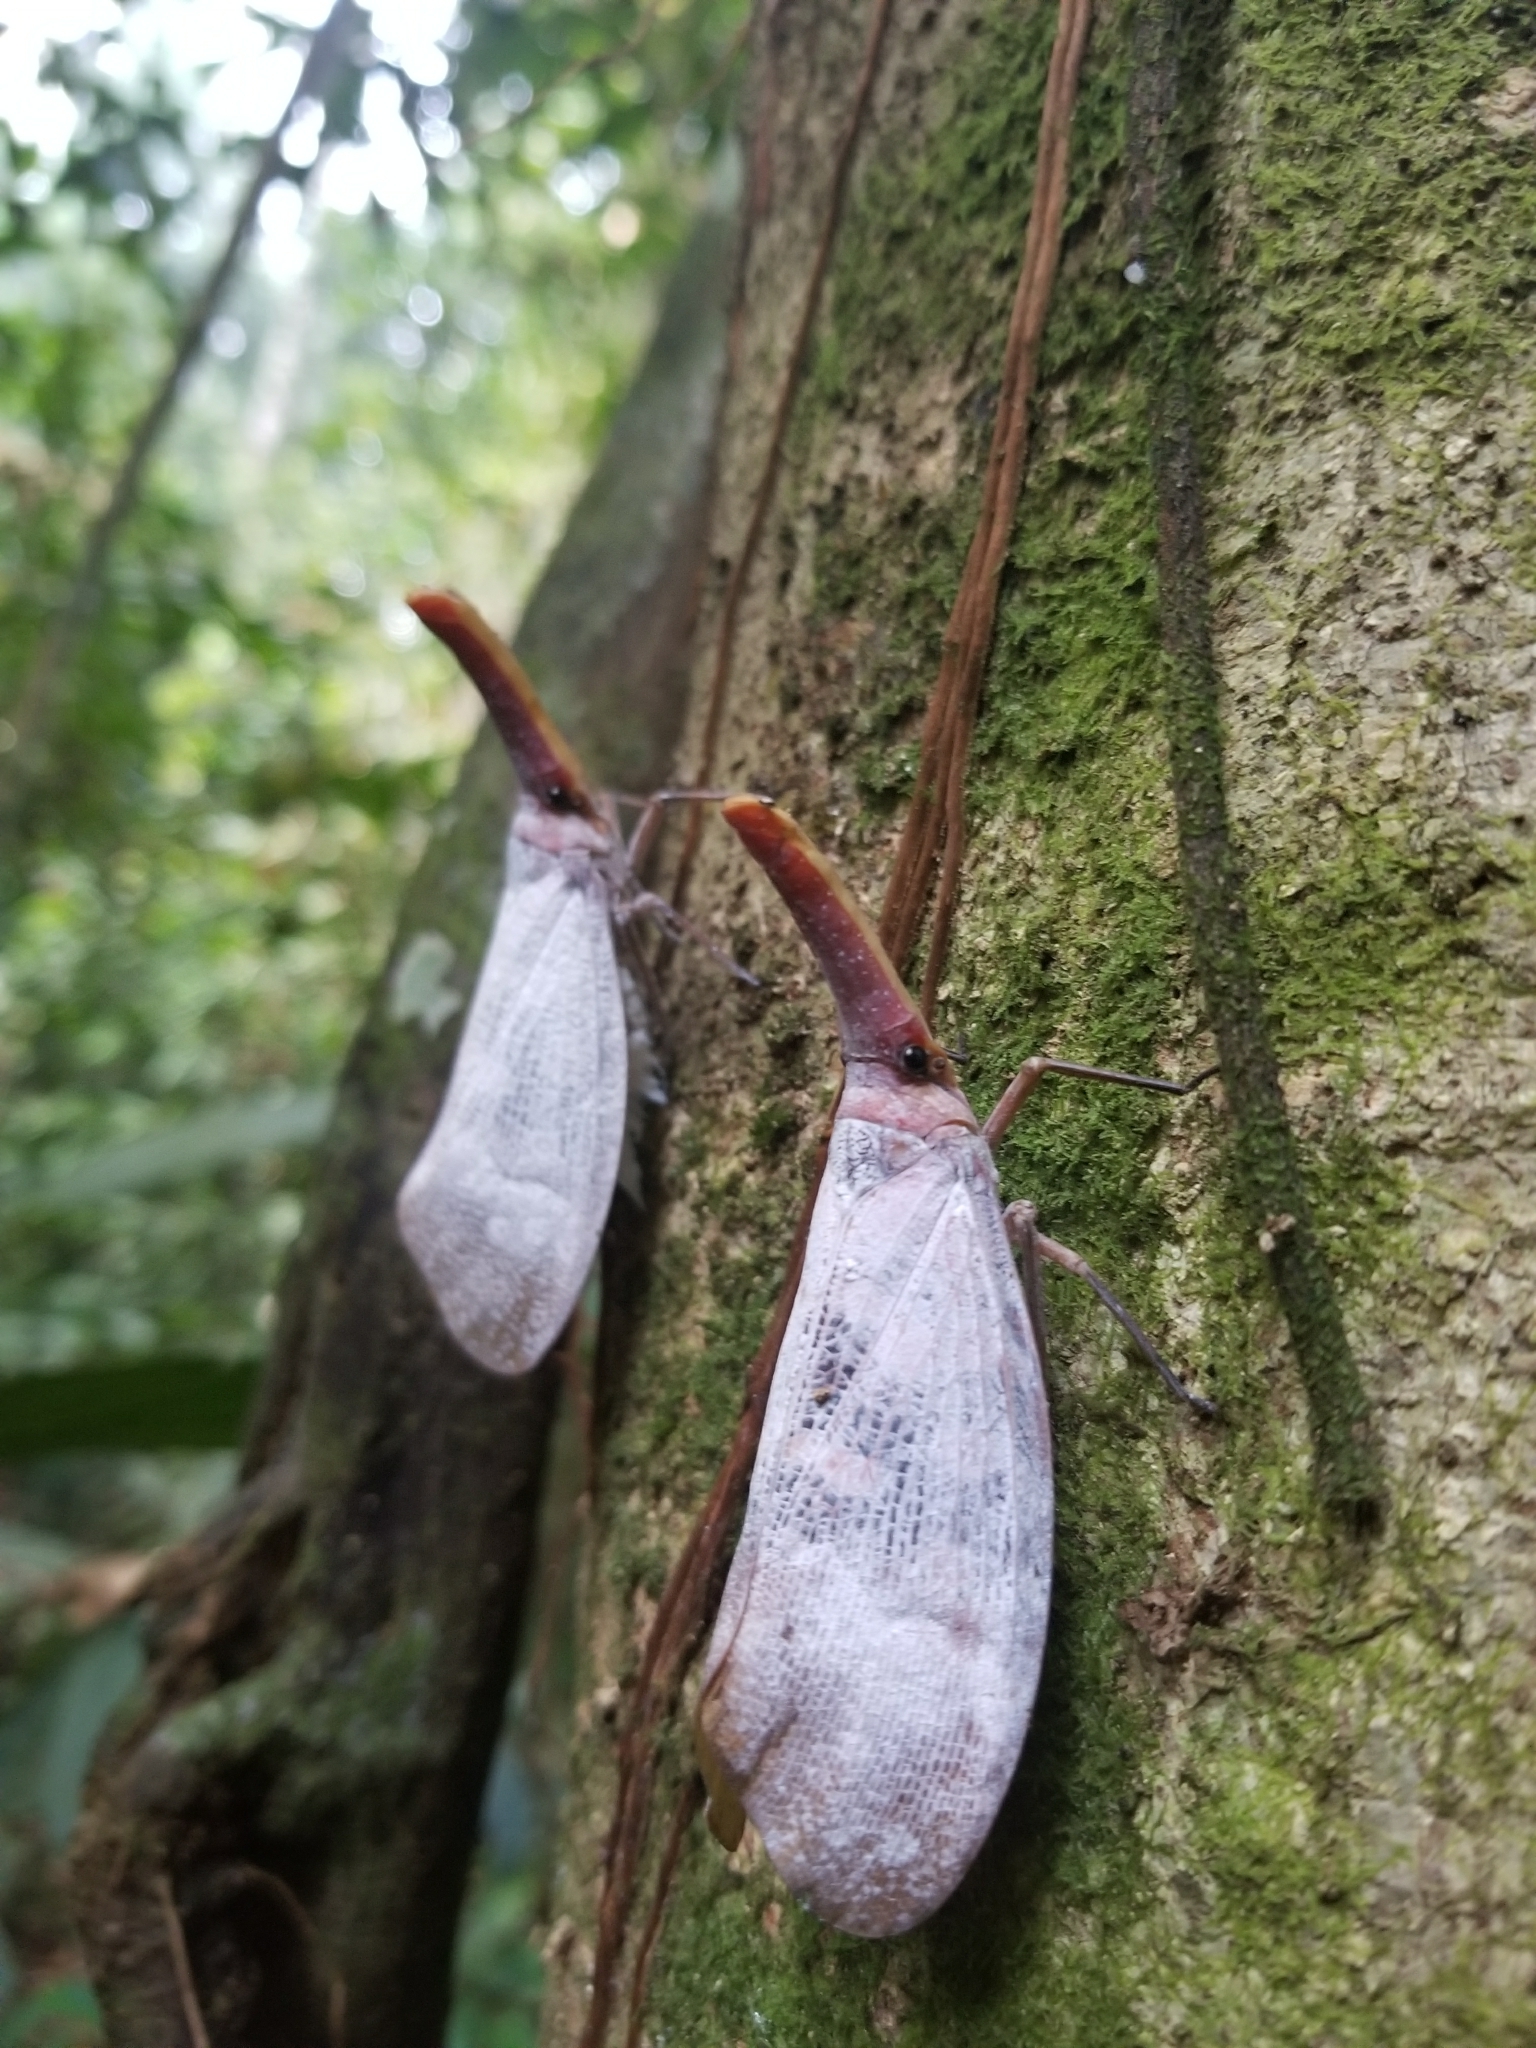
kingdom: Animalia
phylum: Arthropoda
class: Insecta
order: Hemiptera
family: Fulgoridae
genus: Pyrops
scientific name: Pyrops sultanus
